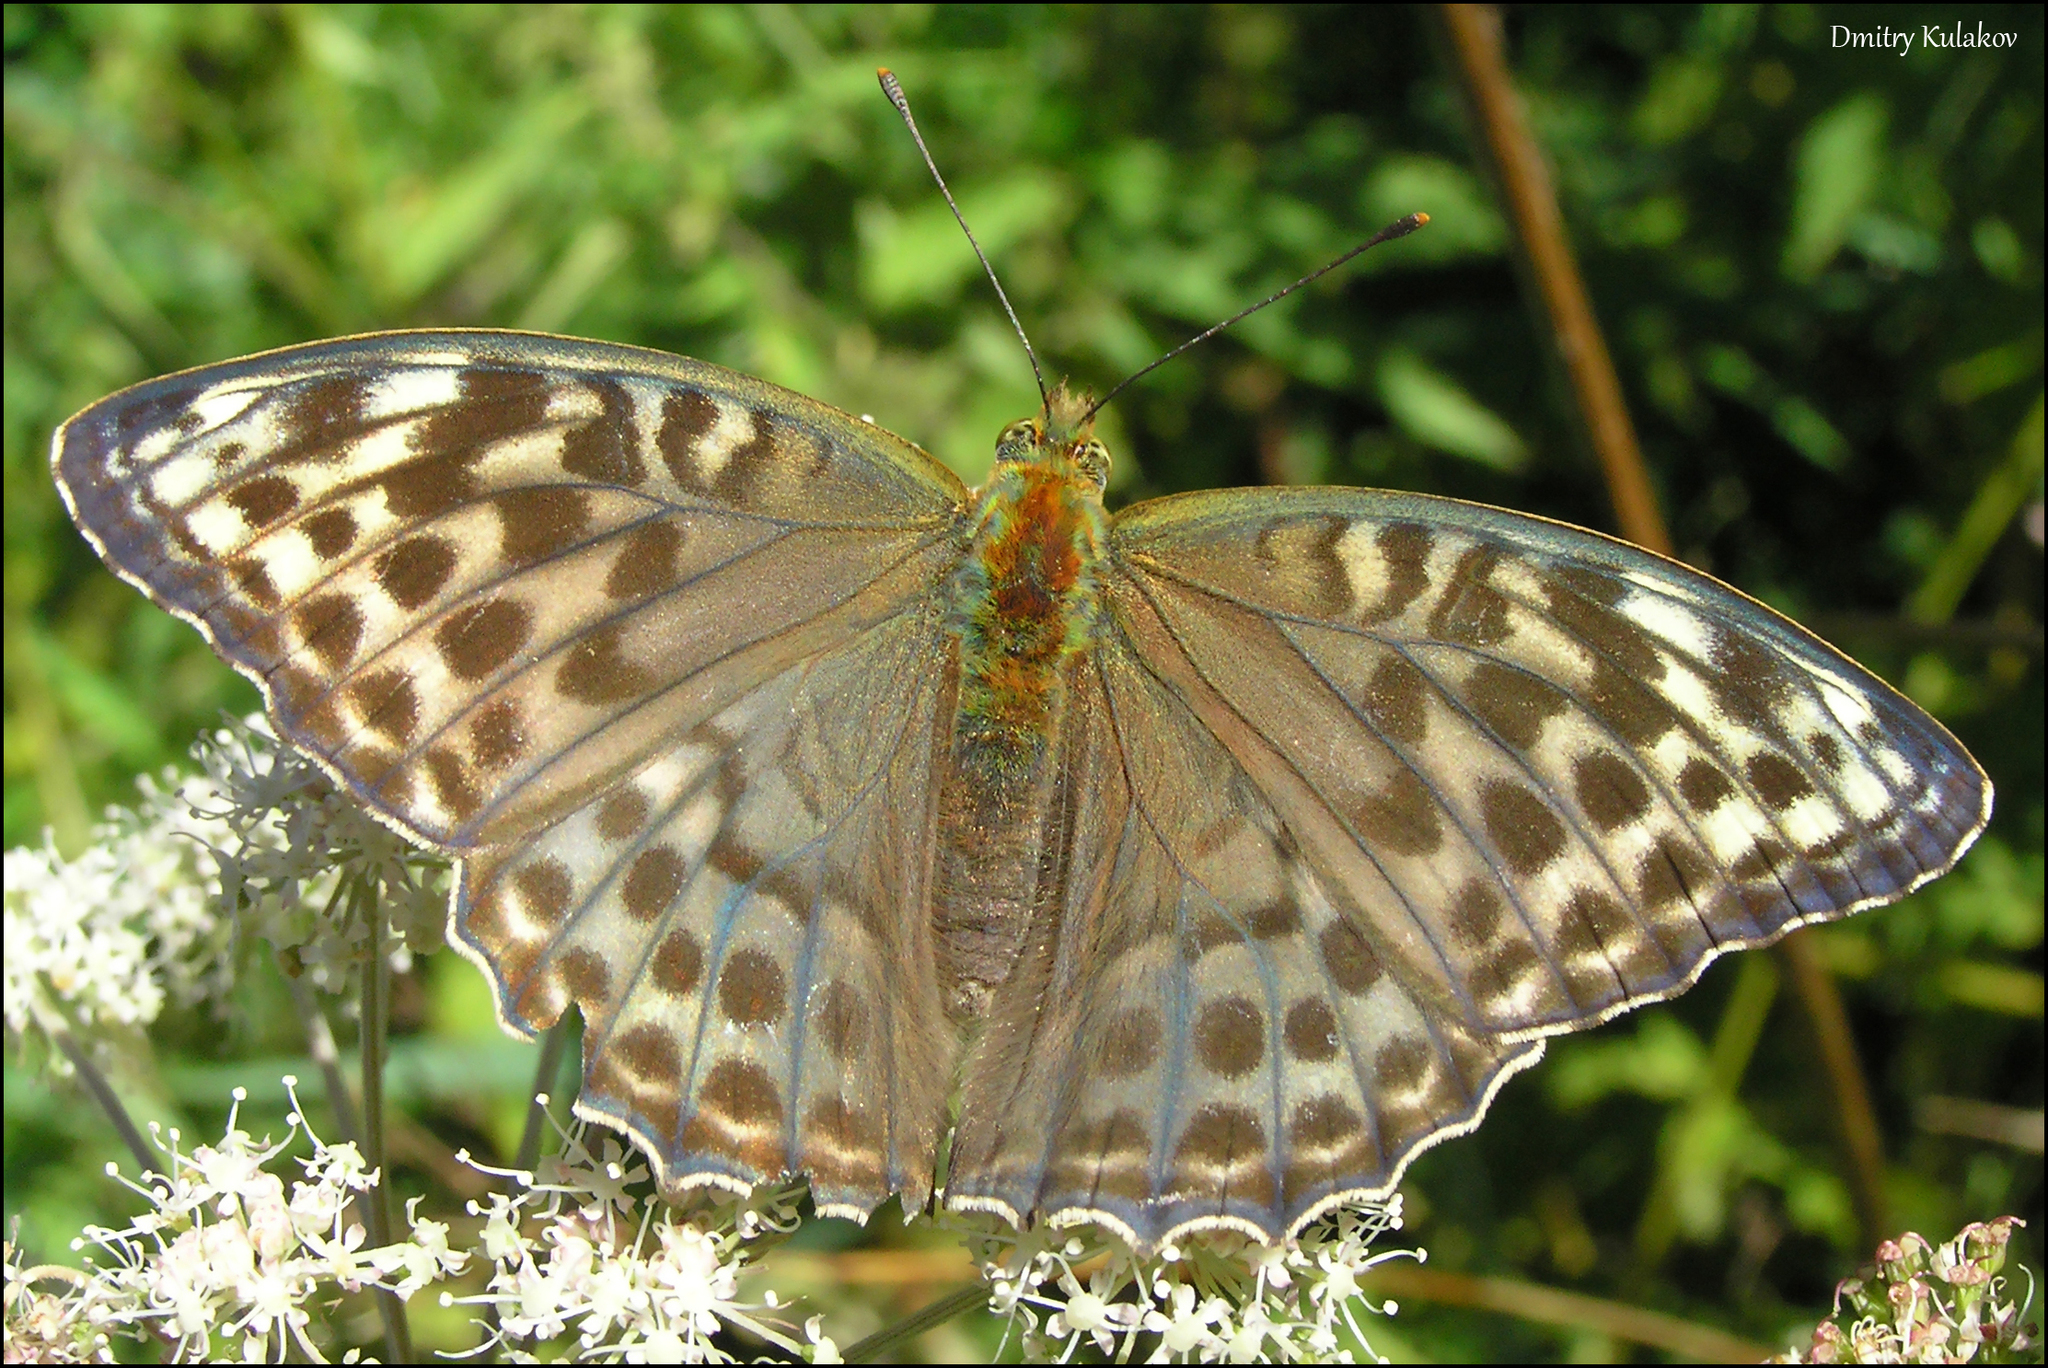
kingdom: Animalia
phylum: Arthropoda
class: Insecta
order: Lepidoptera
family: Nymphalidae
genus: Argynnis
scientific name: Argynnis paphia
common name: Silver-washed fritillary
